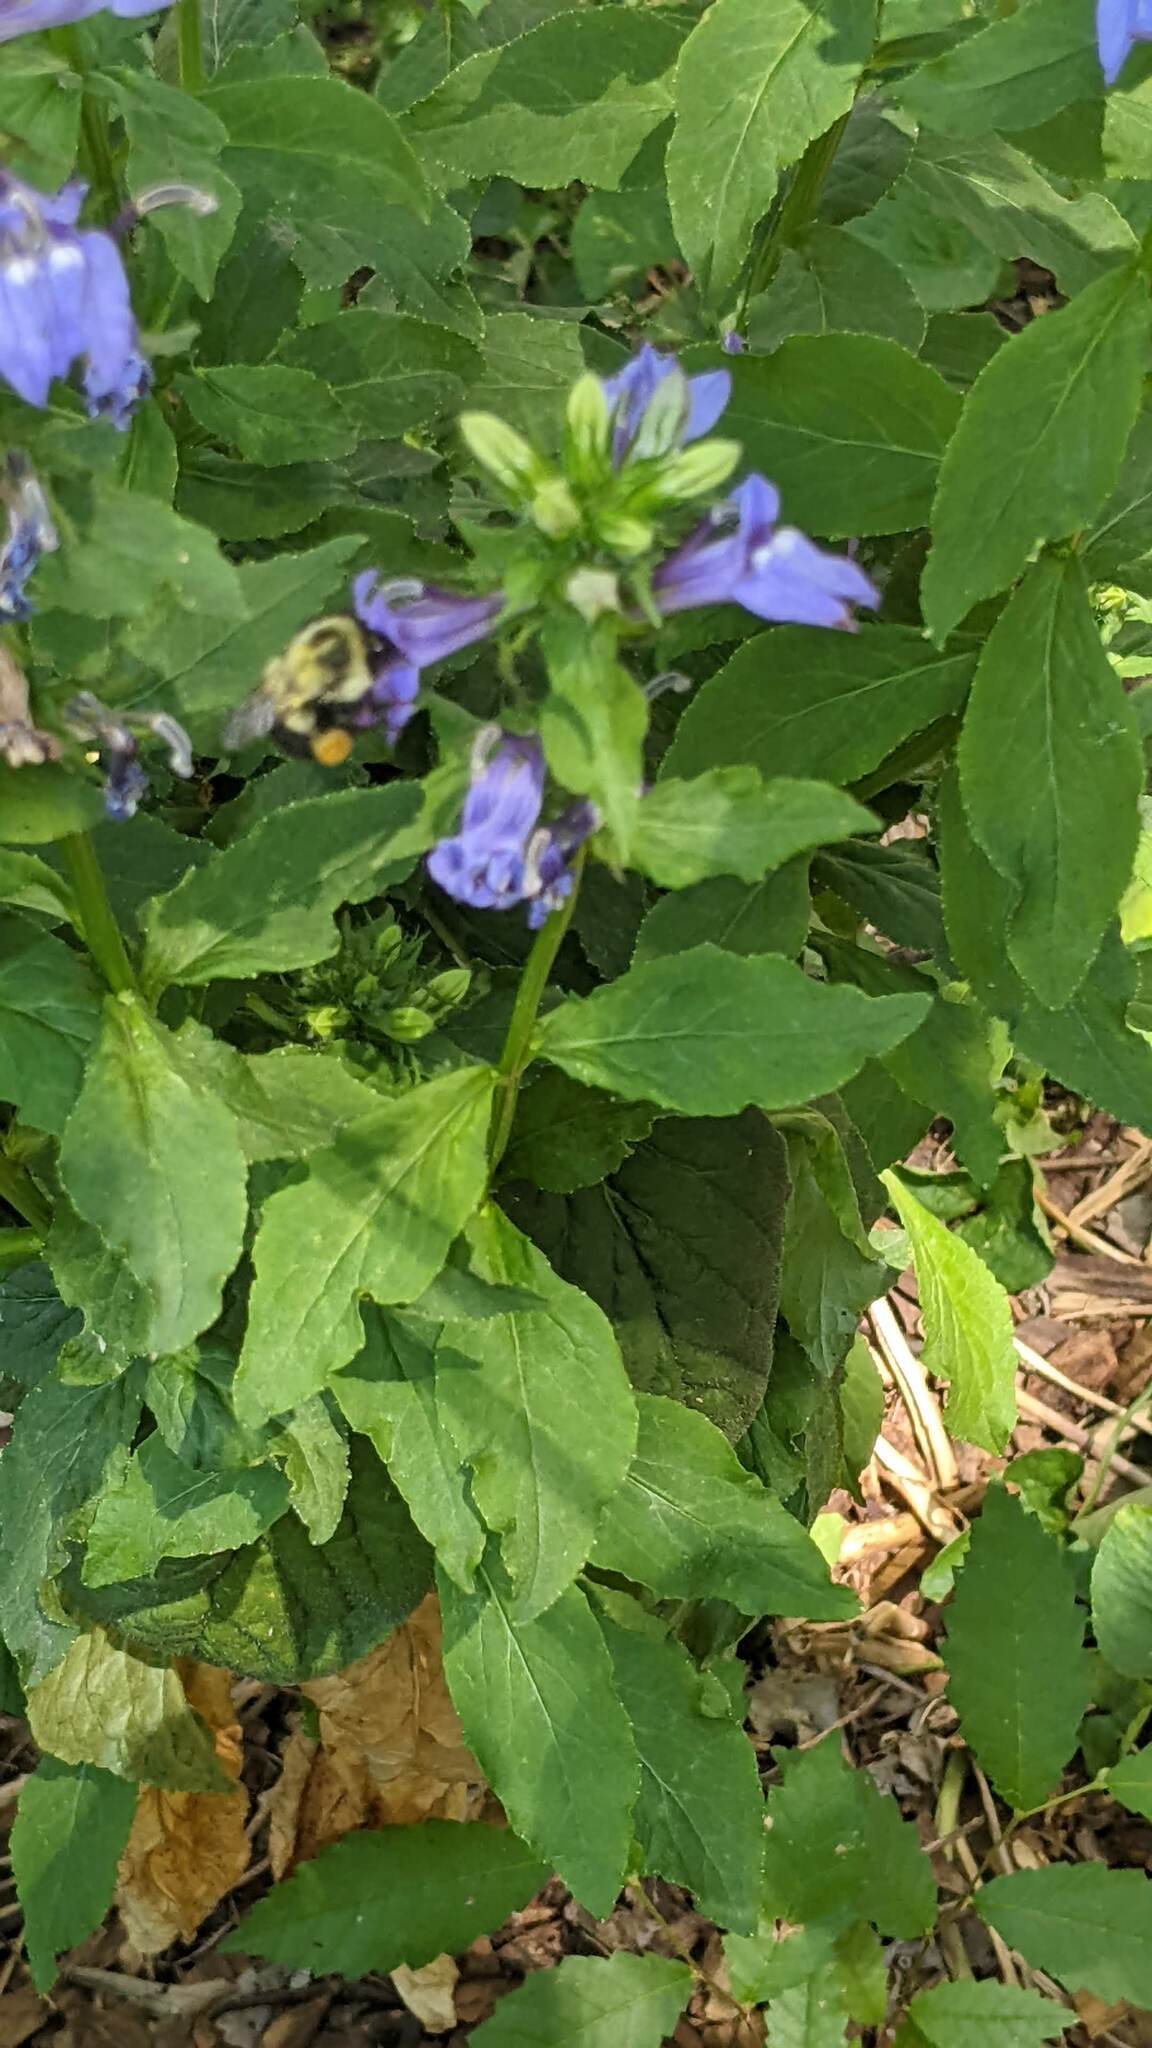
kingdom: Animalia
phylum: Arthropoda
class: Insecta
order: Hymenoptera
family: Apidae
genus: Bombus
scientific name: Bombus impatiens
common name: Common eastern bumble bee
